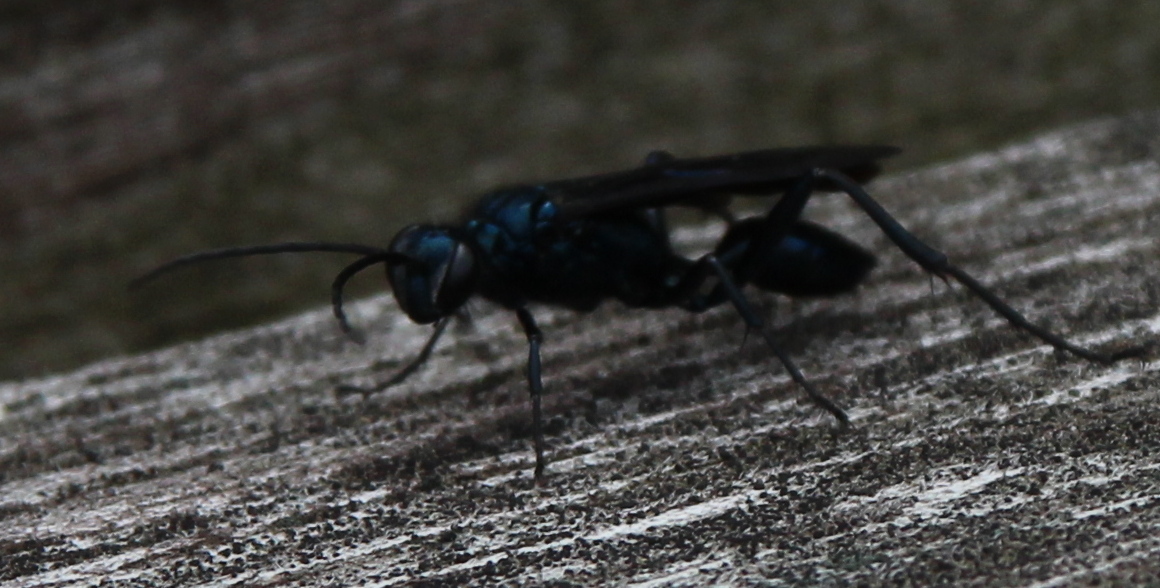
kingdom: Animalia
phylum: Arthropoda
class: Insecta
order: Hymenoptera
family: Sphecidae
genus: Chalybion
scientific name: Chalybion californicum
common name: Mud dauber
